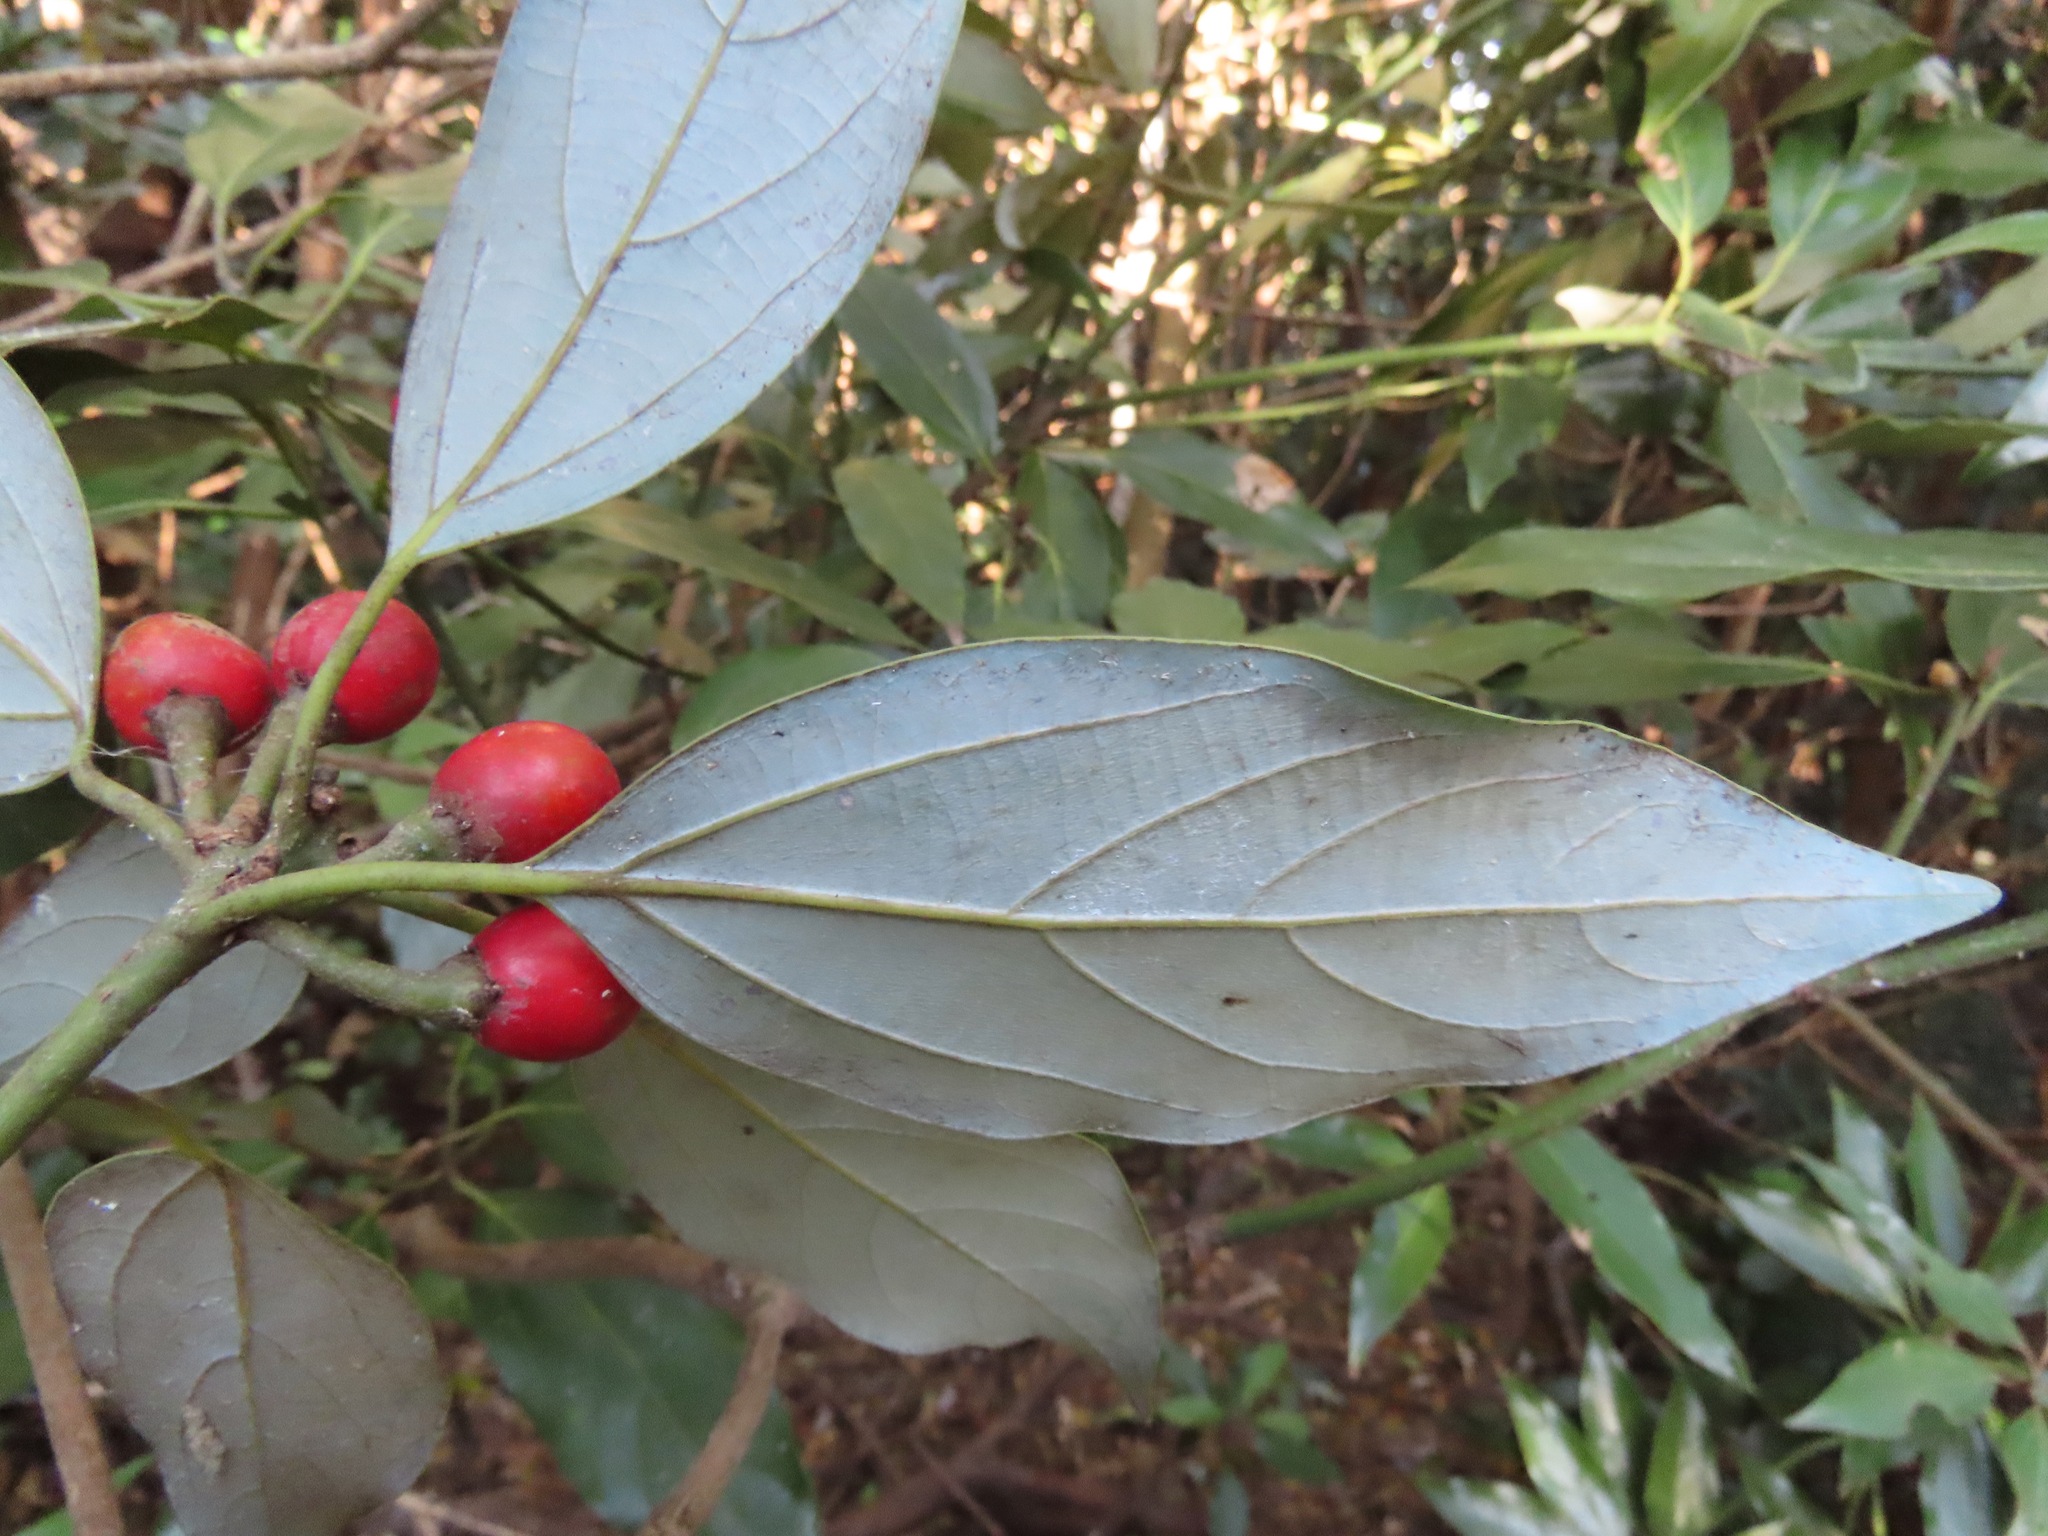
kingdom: Plantae
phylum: Tracheophyta
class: Magnoliopsida
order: Laurales
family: Lauraceae
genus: Neolitsea
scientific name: Neolitsea sericea
